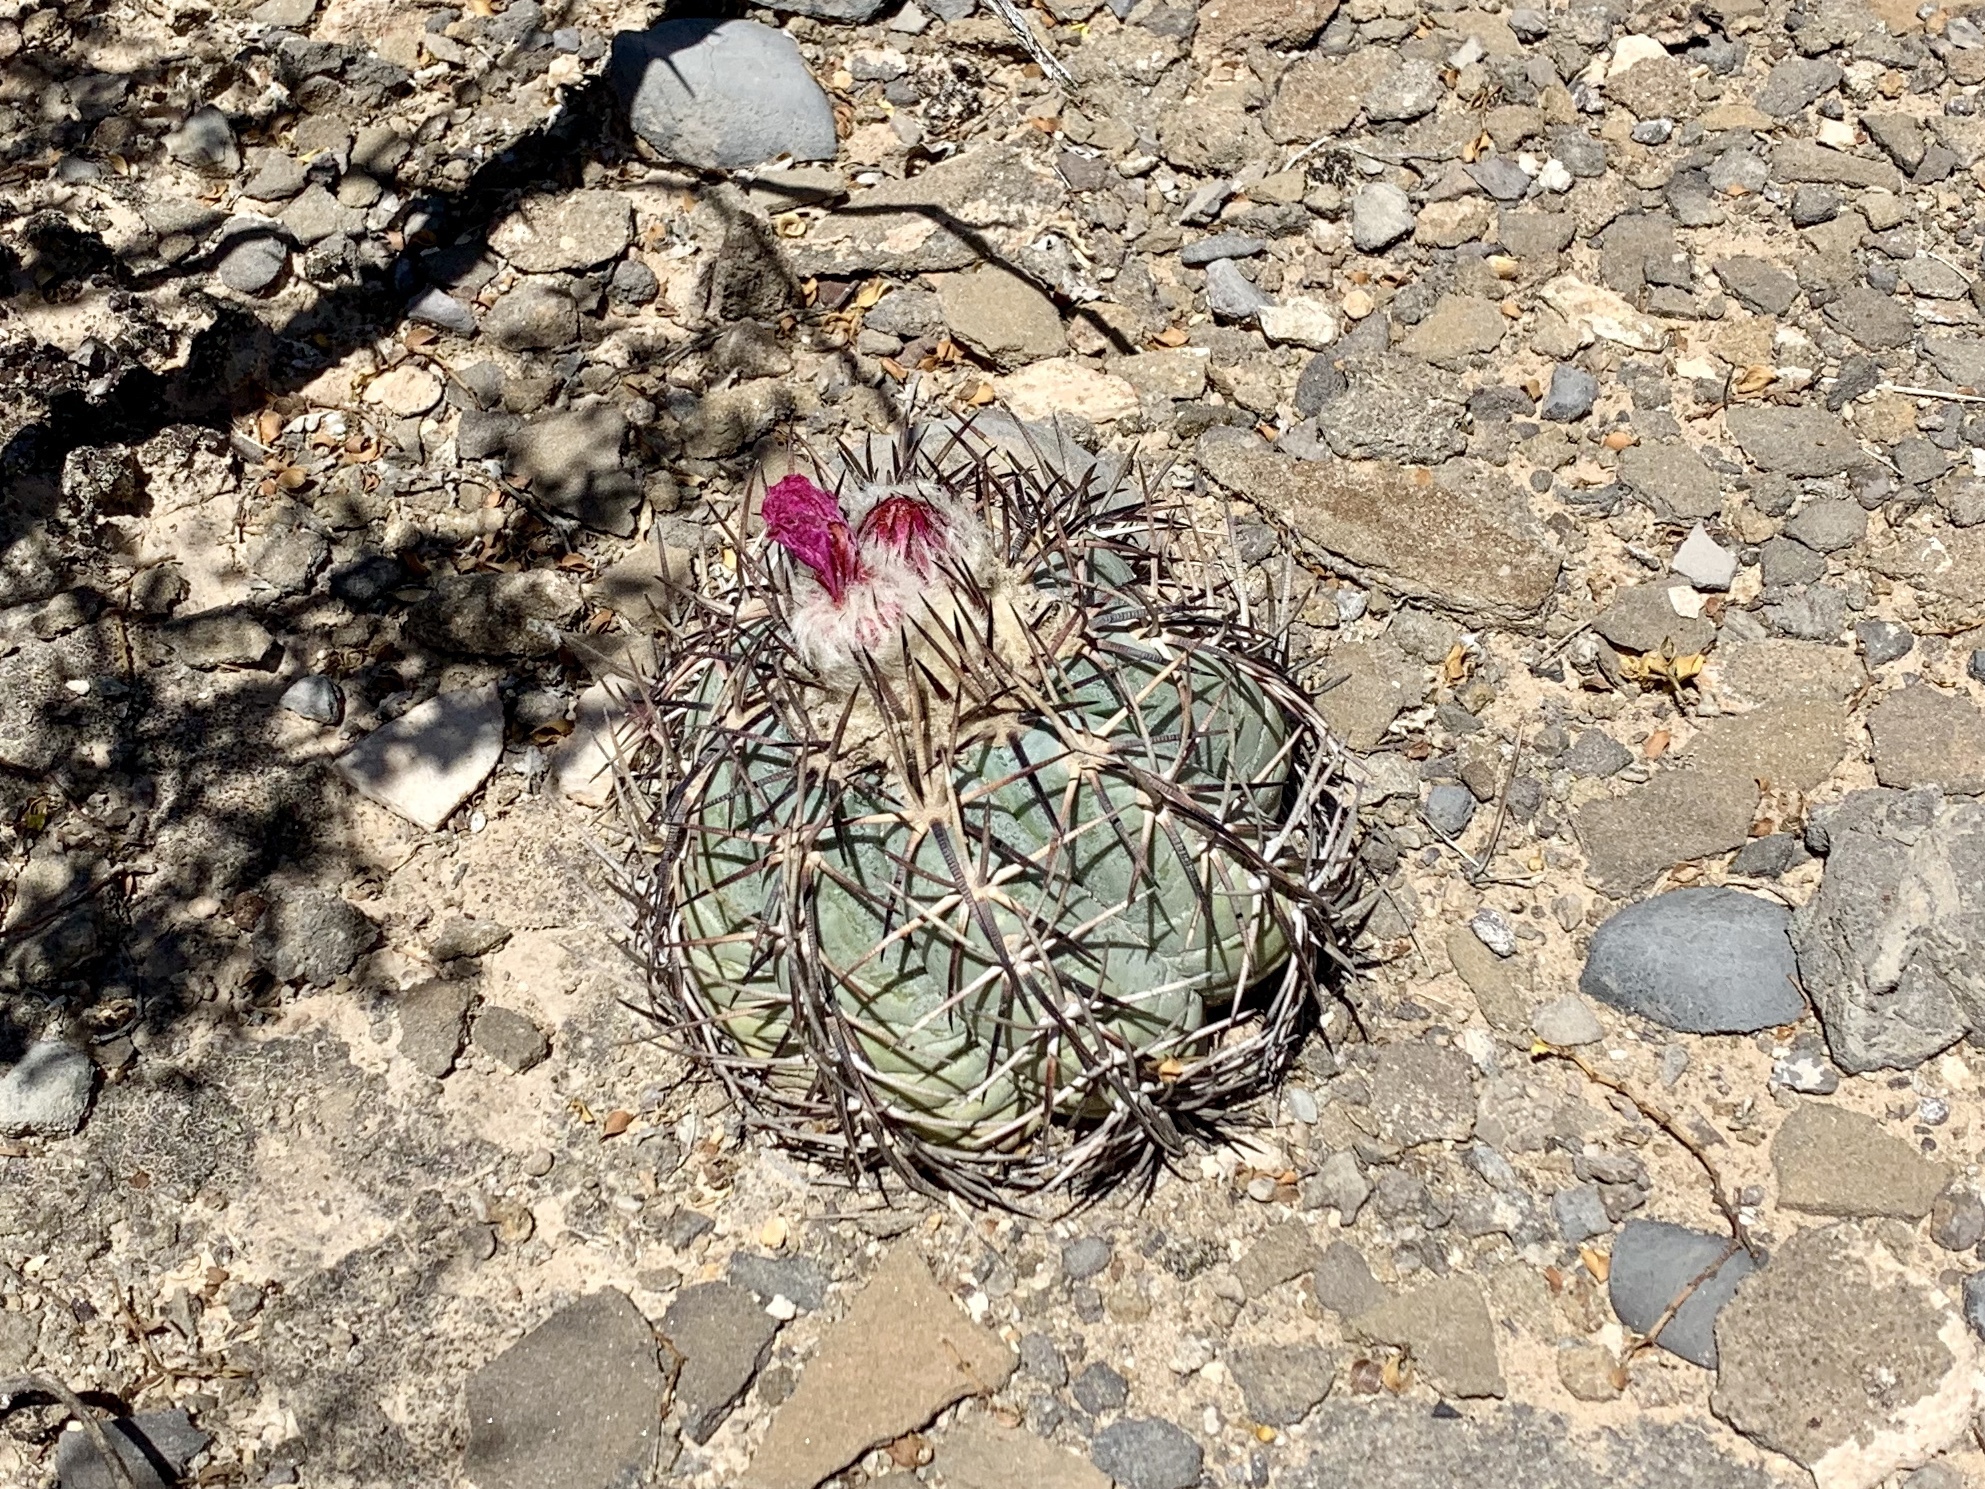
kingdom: Plantae
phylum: Tracheophyta
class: Magnoliopsida
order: Caryophyllales
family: Cactaceae
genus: Echinocactus
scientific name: Echinocactus horizonthalonius
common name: Devilshead
